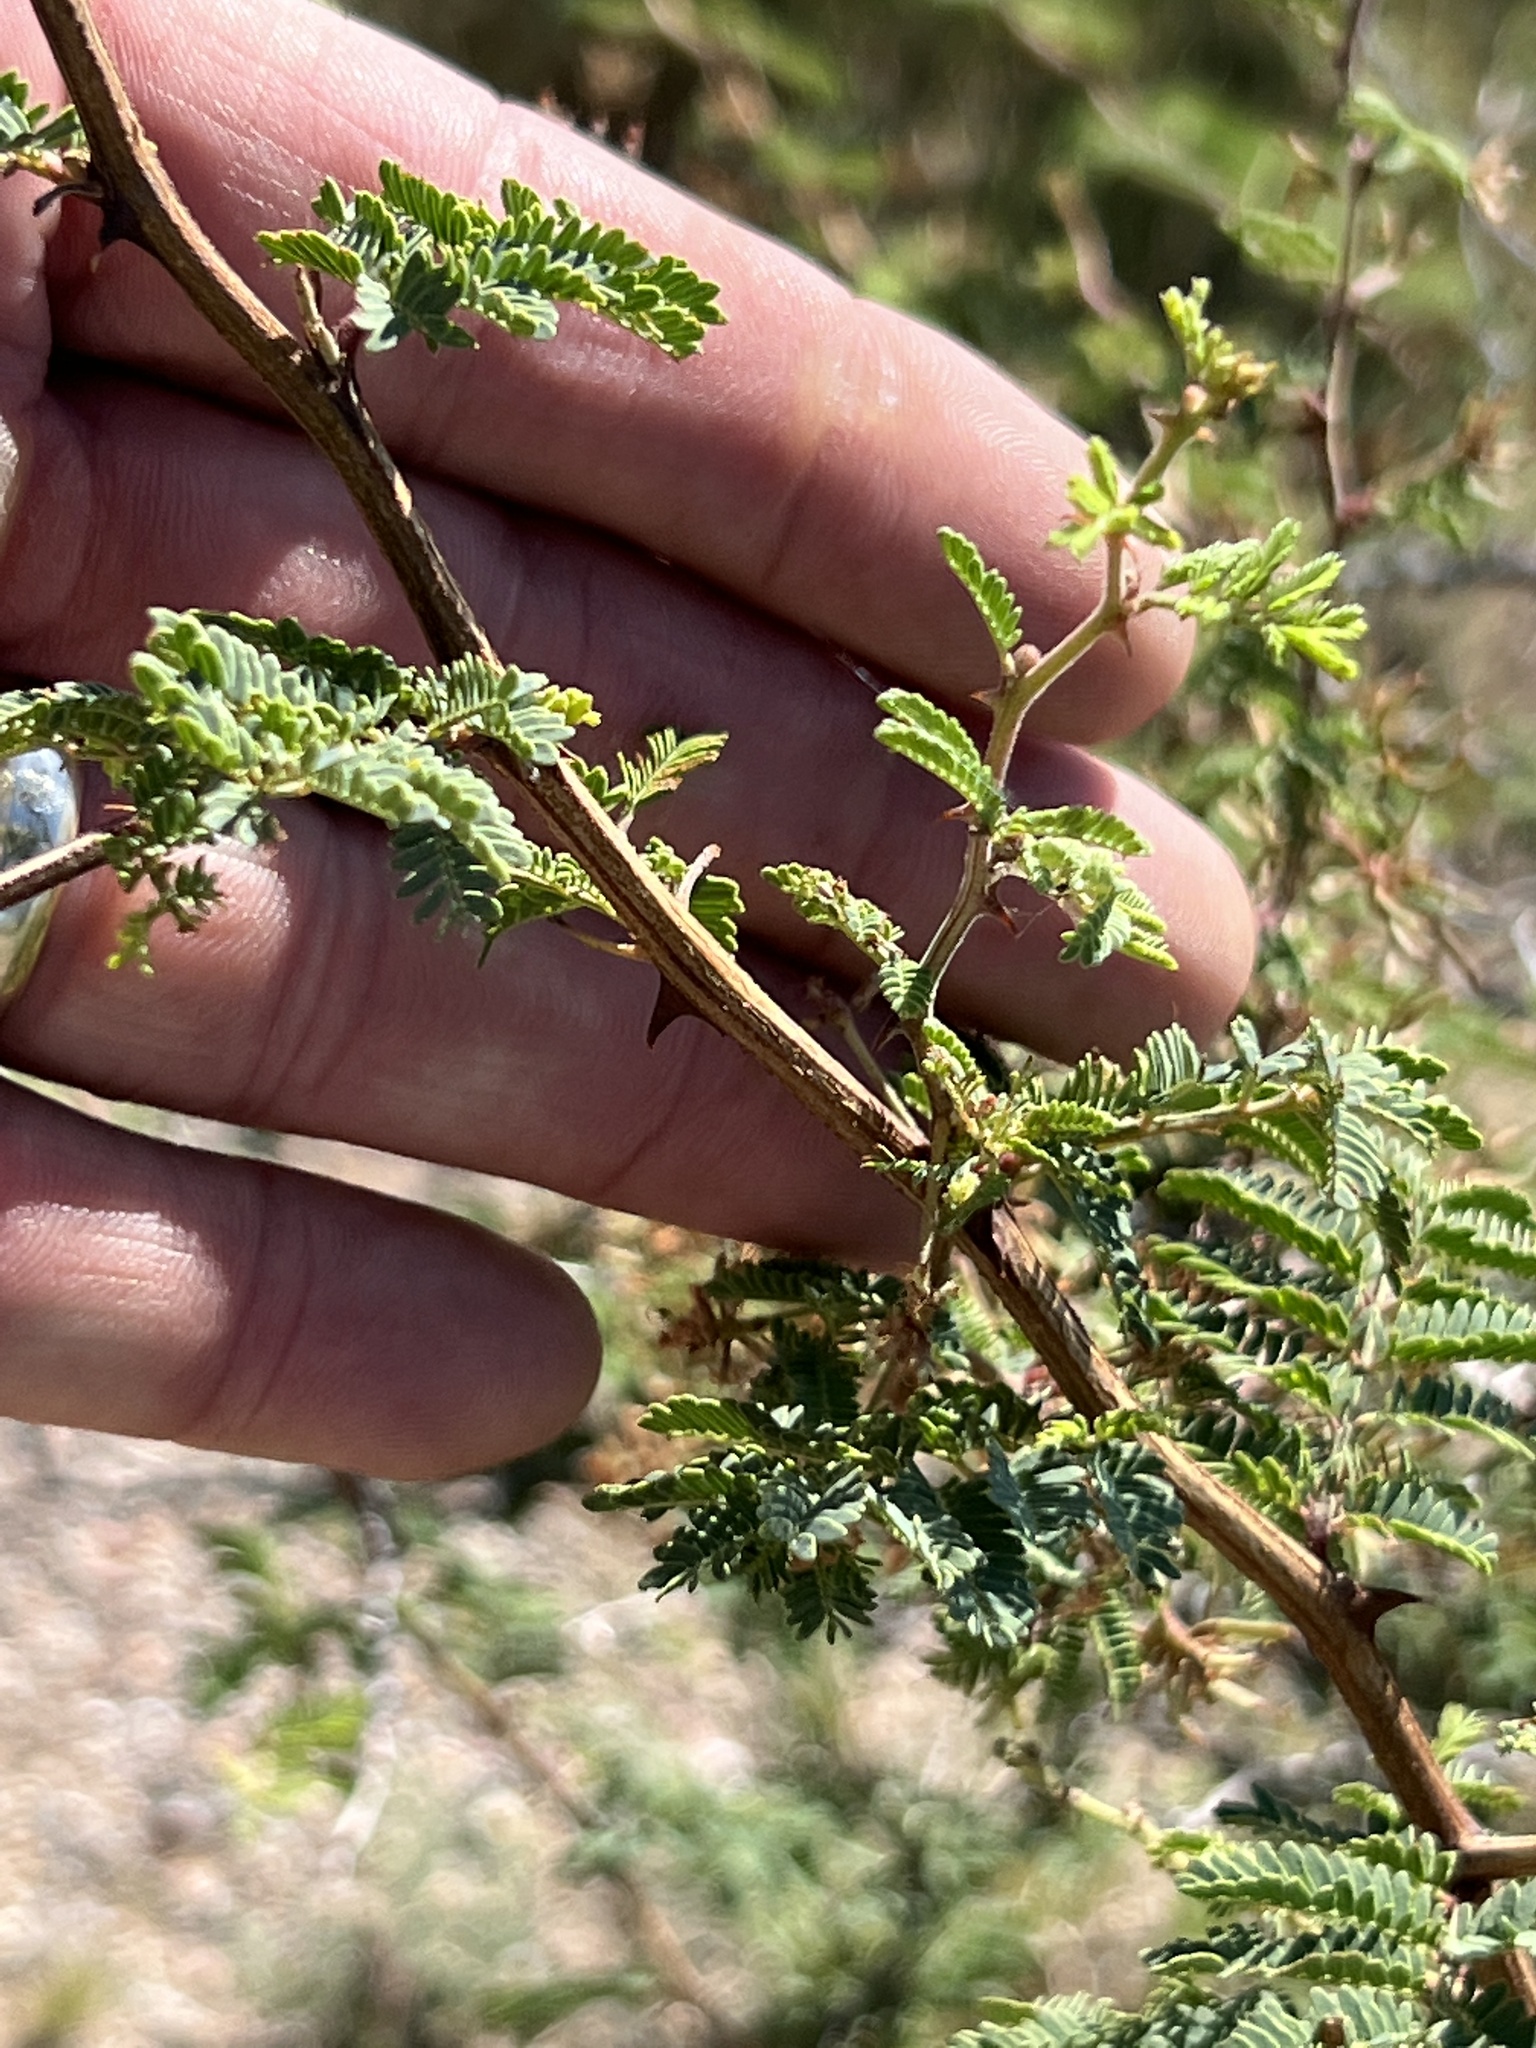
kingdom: Plantae
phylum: Tracheophyta
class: Magnoliopsida
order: Fabales
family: Fabaceae
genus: Mimosa
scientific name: Mimosa aculeaticarpa
